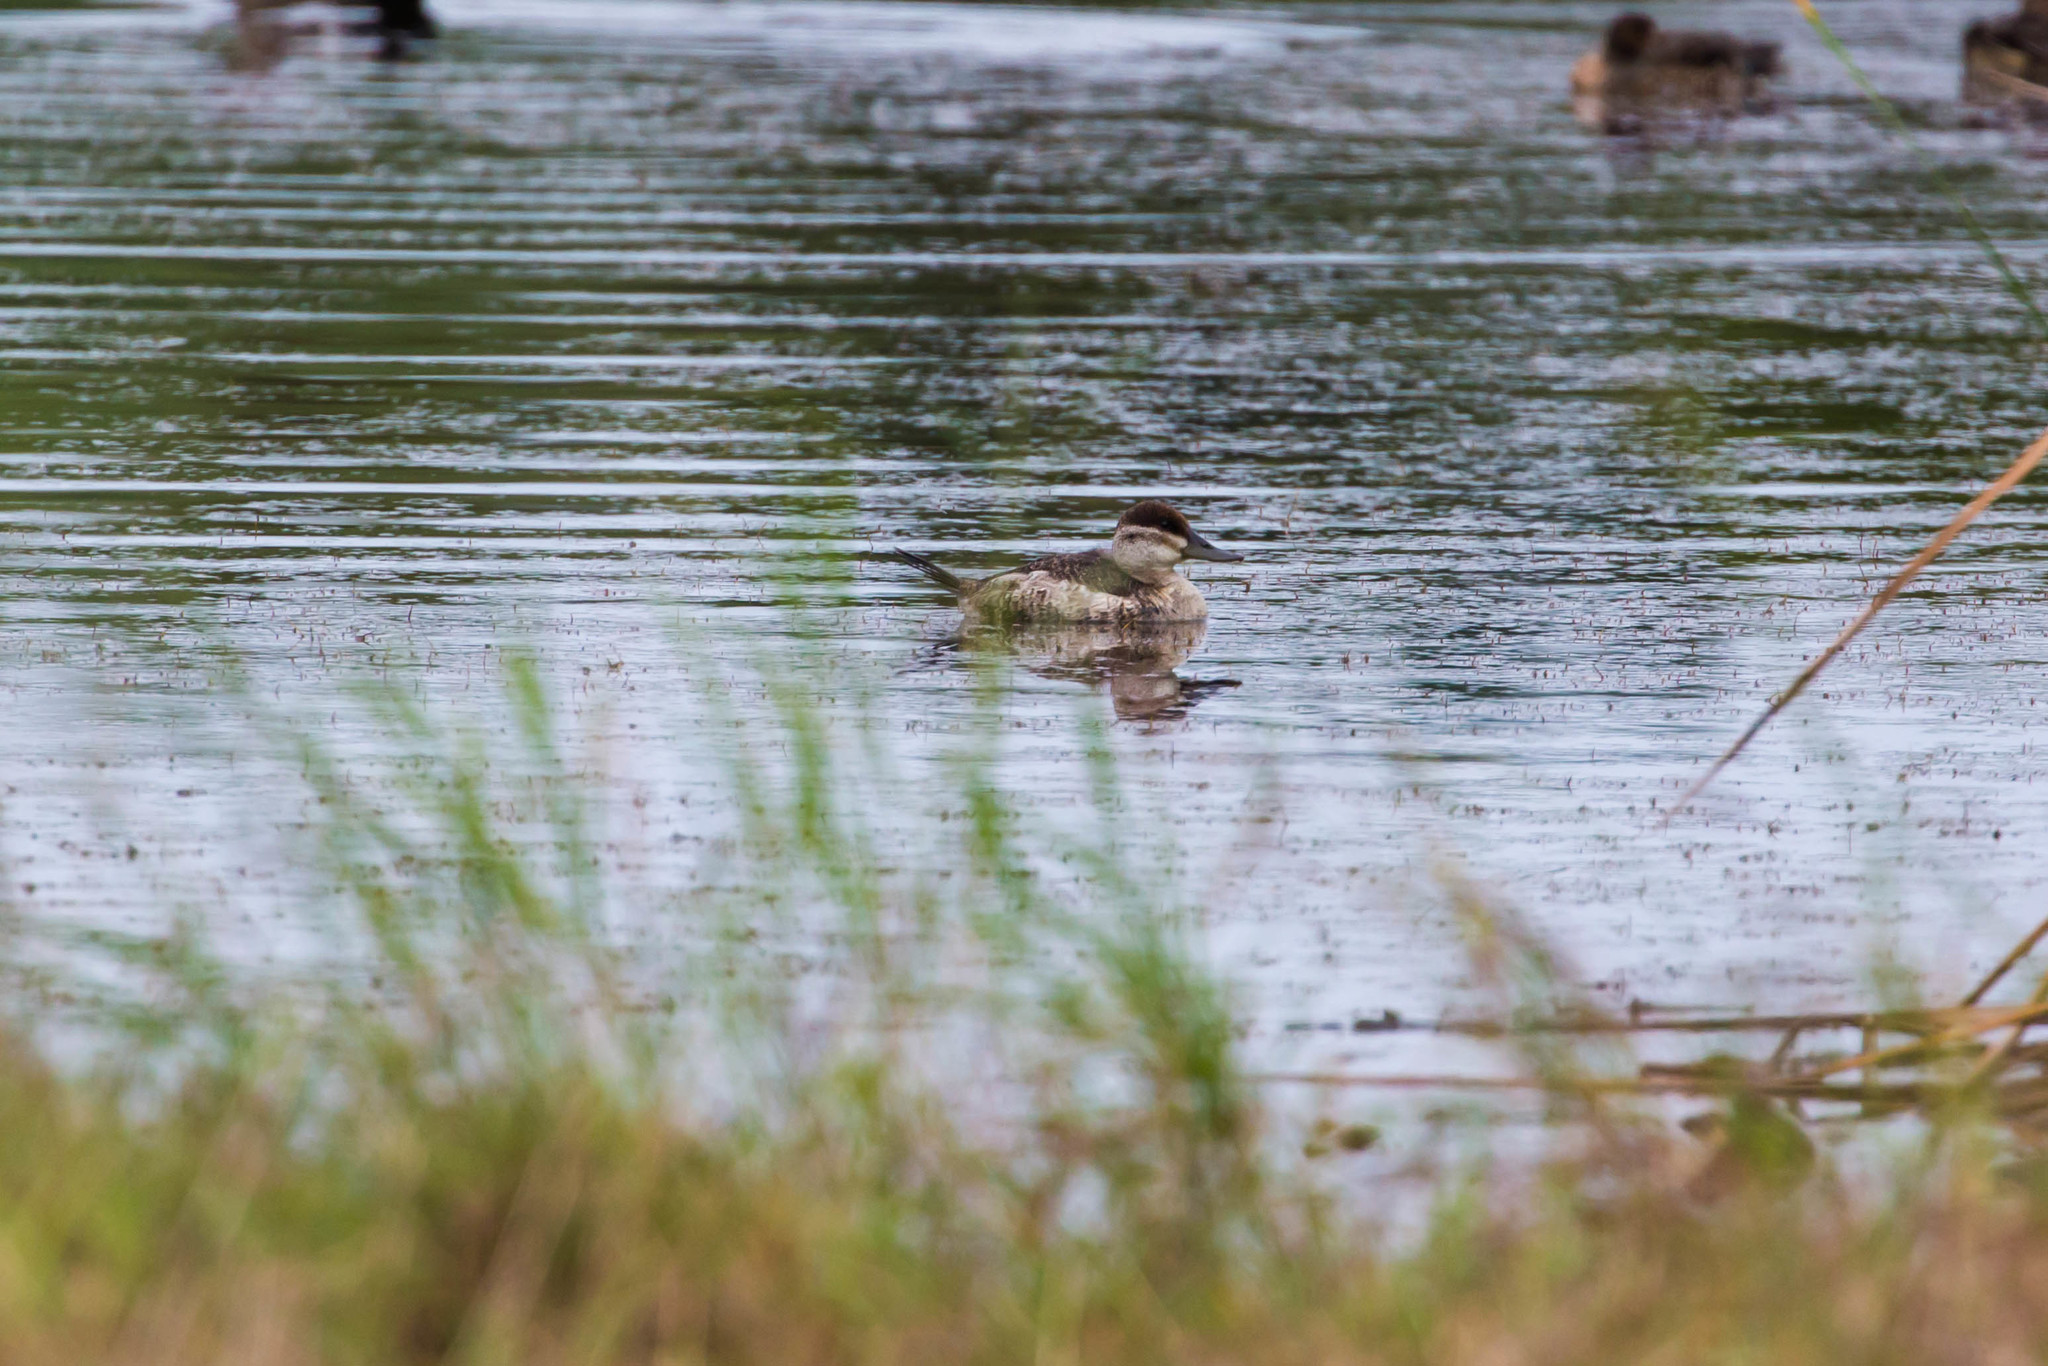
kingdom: Animalia
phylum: Chordata
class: Aves
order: Anseriformes
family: Anatidae
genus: Oxyura
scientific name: Oxyura jamaicensis
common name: Ruddy duck
